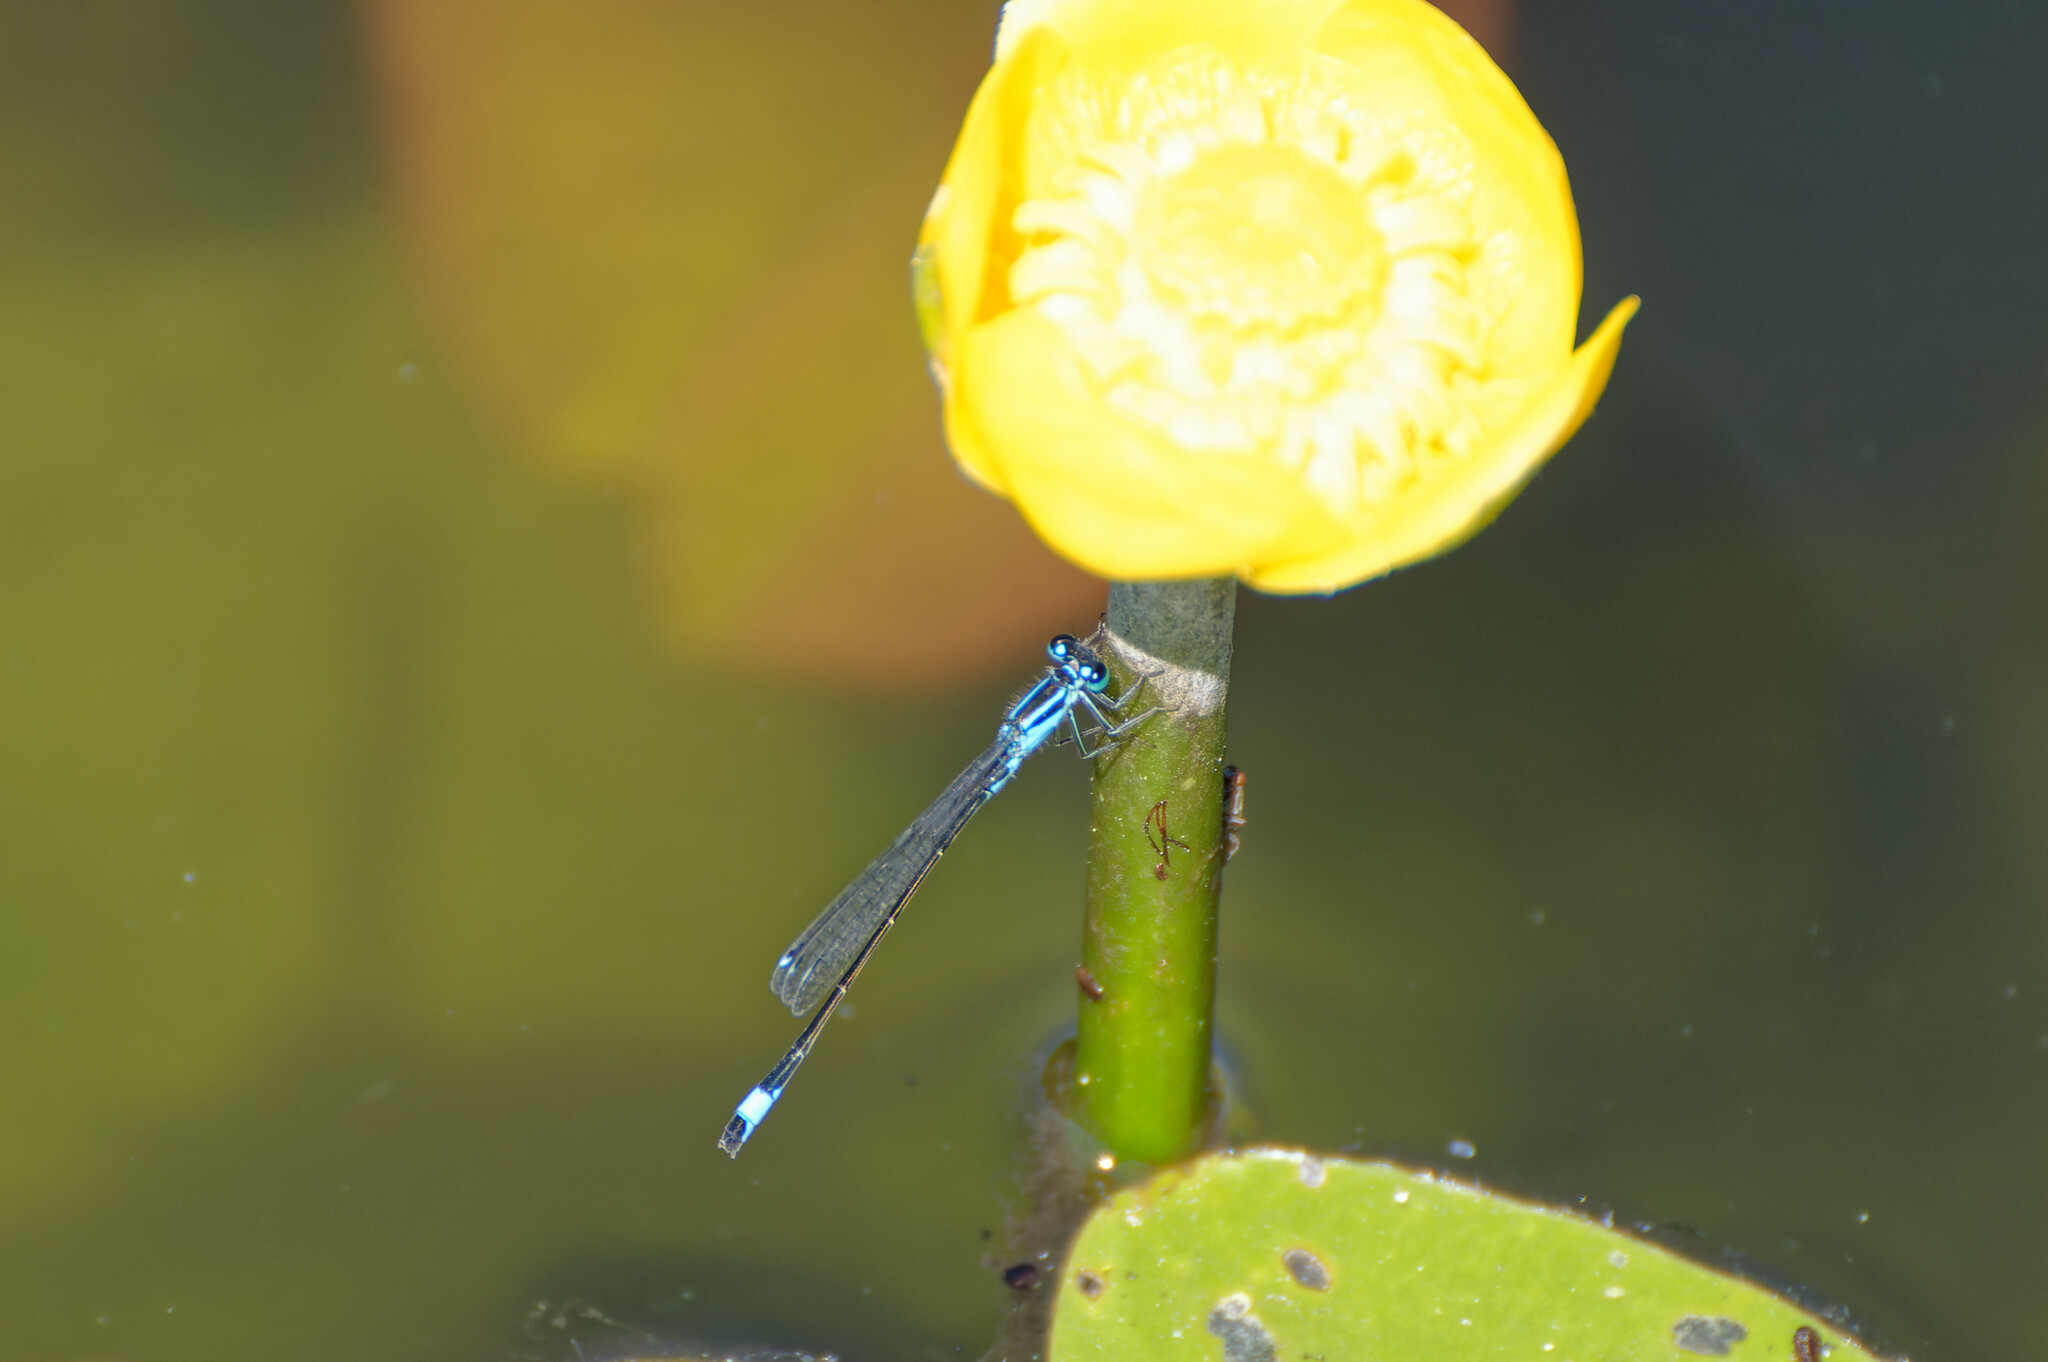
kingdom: Animalia
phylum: Arthropoda
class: Insecta
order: Odonata
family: Coenagrionidae
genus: Ischnura
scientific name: Ischnura elegans
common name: Blue-tailed damselfly
